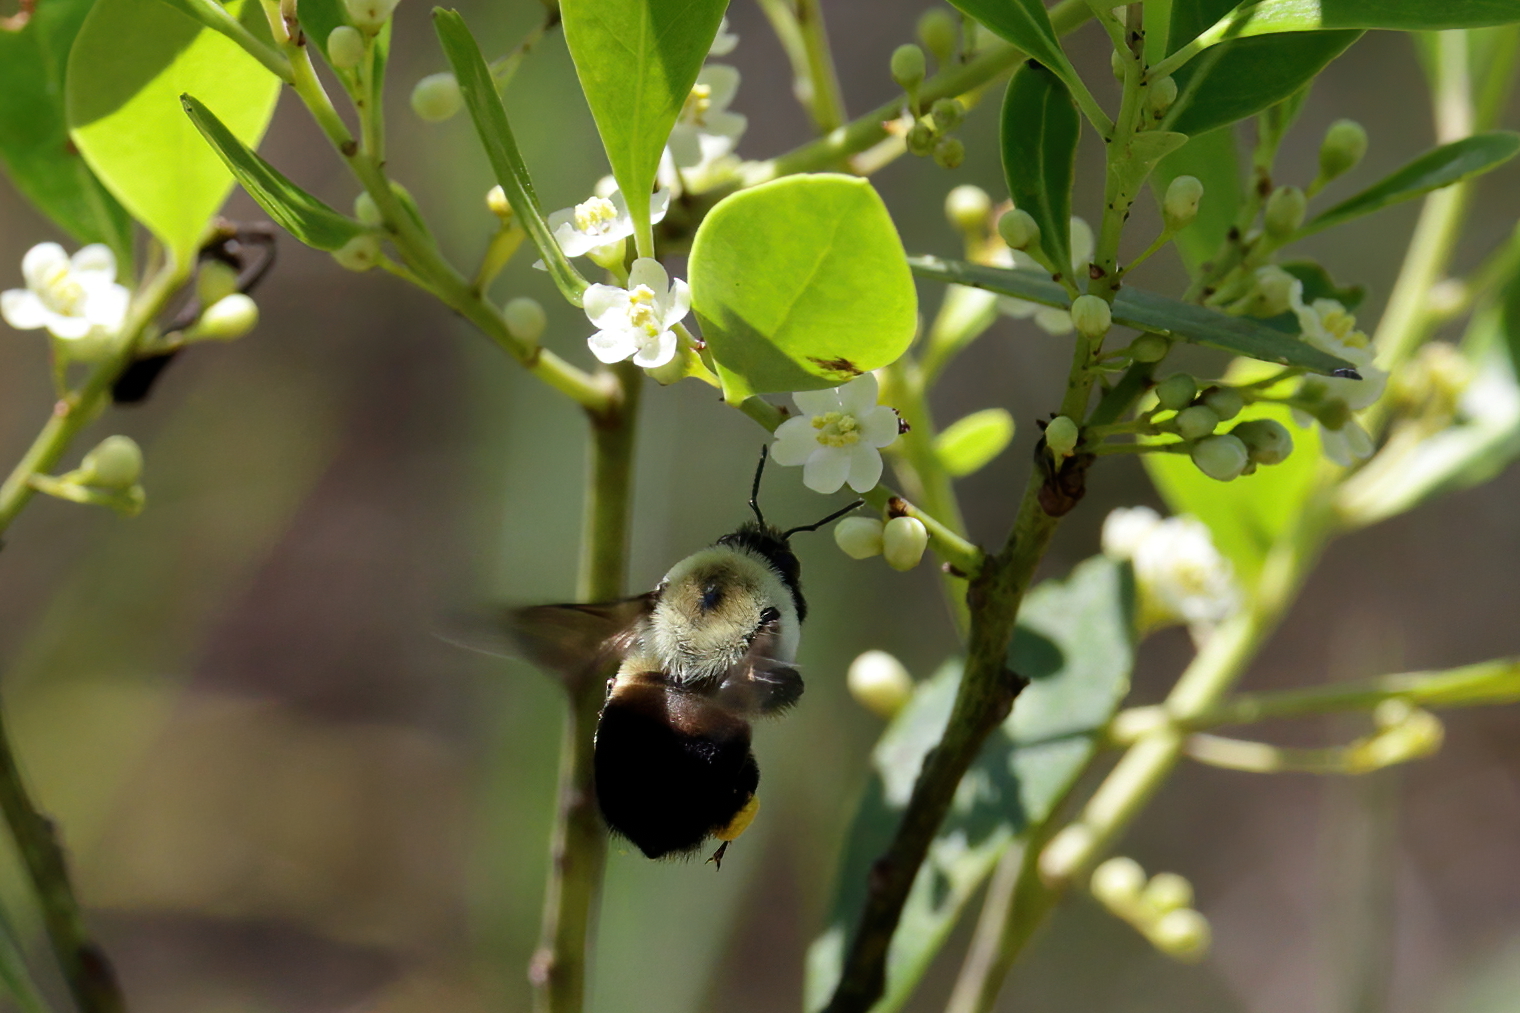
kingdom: Animalia
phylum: Arthropoda
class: Insecta
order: Hymenoptera
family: Apidae
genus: Bombus
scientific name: Bombus griseocollis
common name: Brown-belted bumble bee
